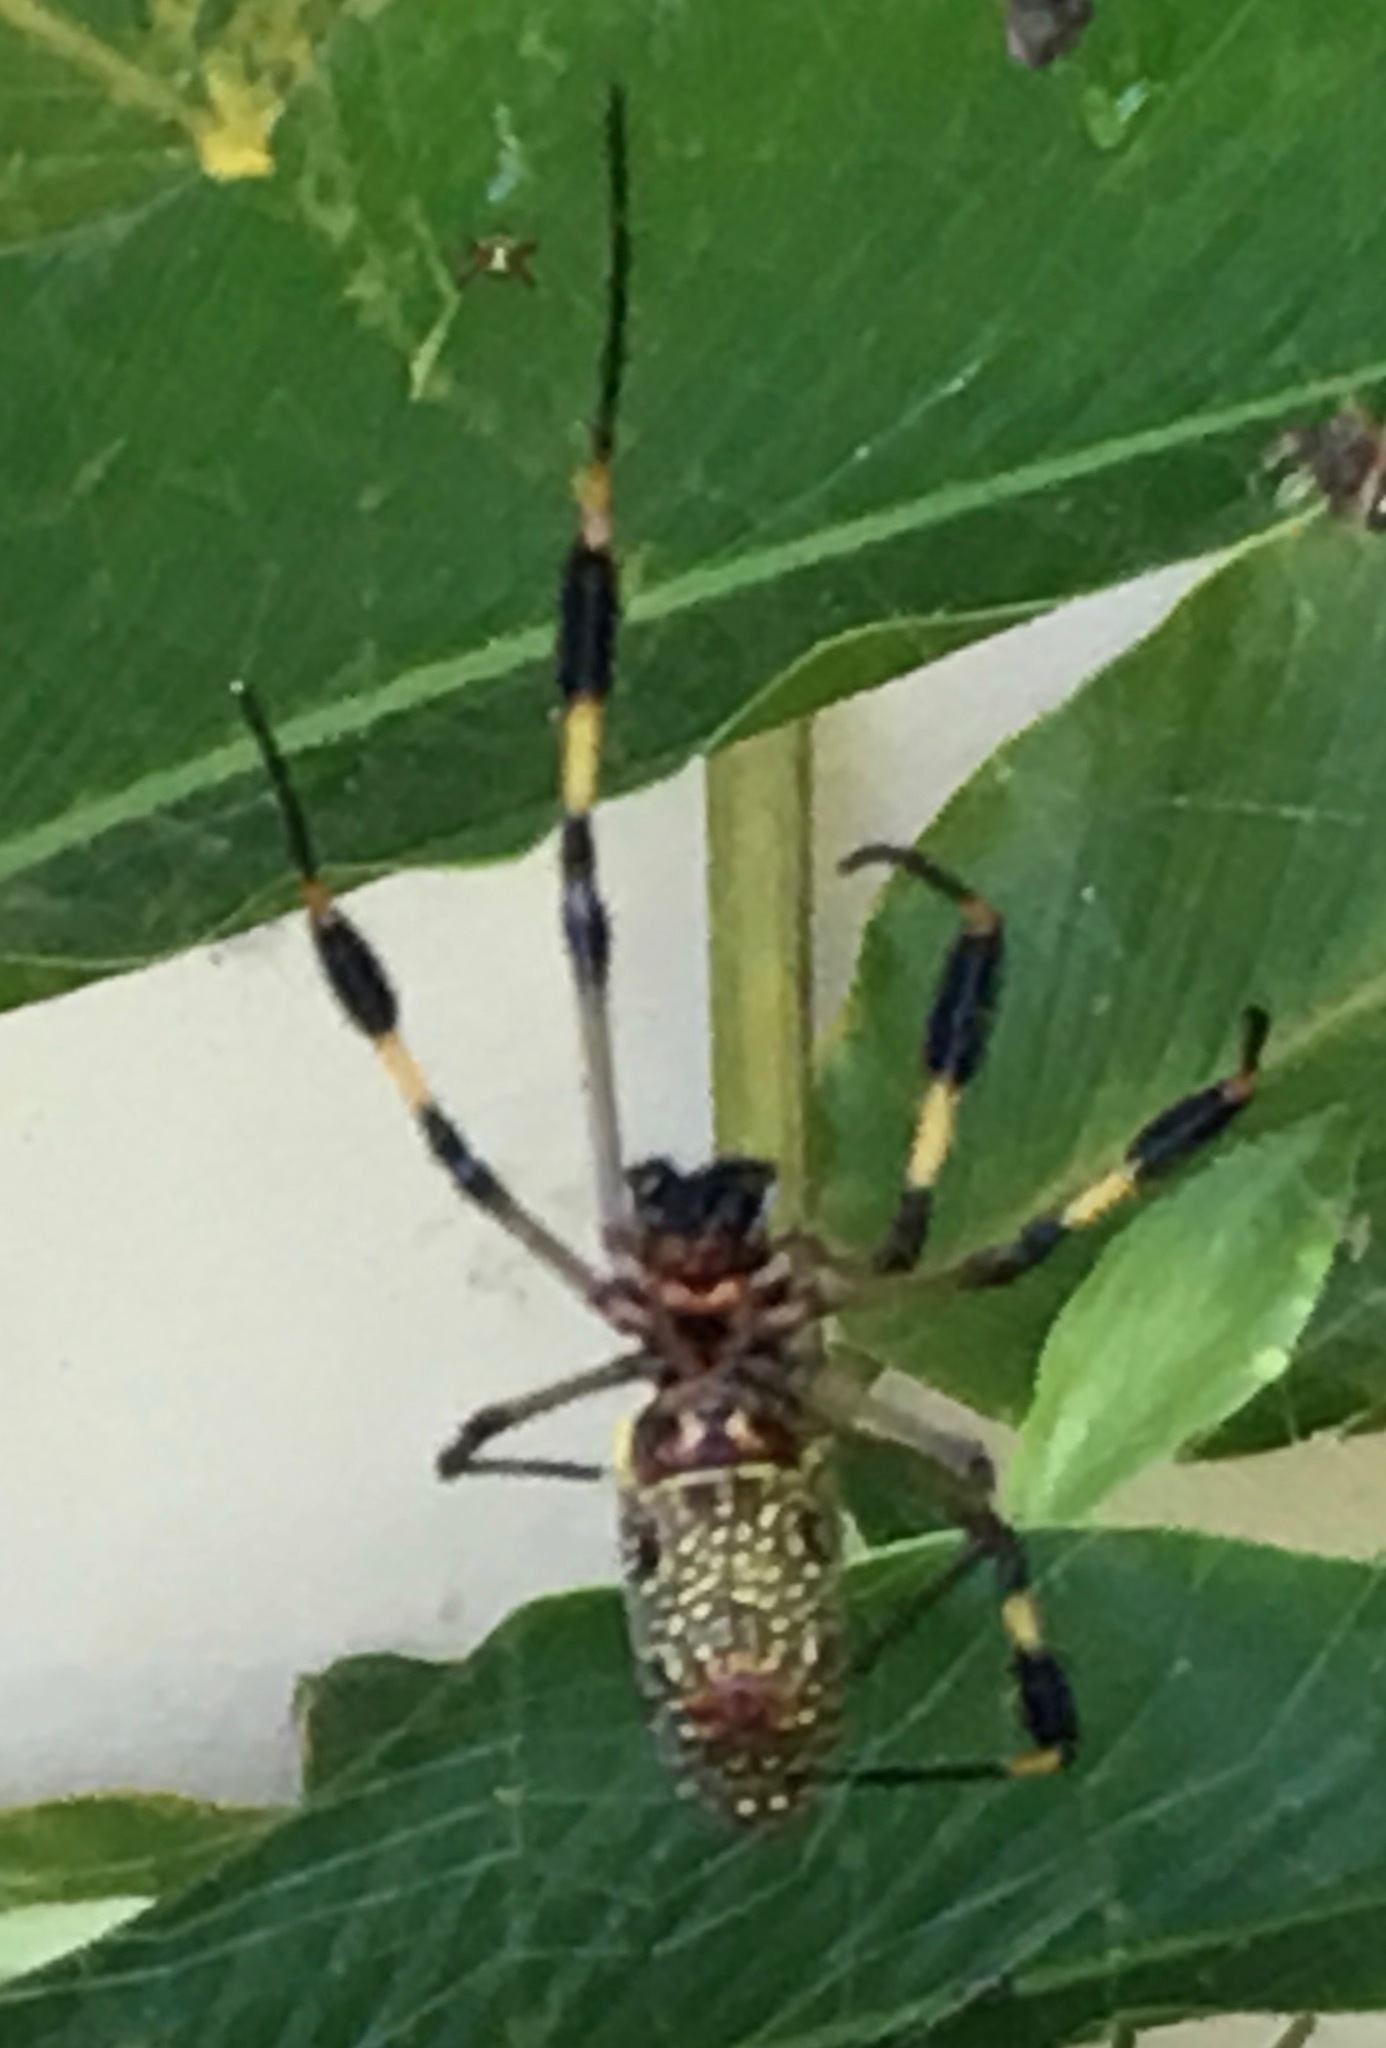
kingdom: Animalia
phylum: Arthropoda
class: Arachnida
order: Araneae
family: Araneidae
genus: Trichonephila
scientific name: Trichonephila clavipes
